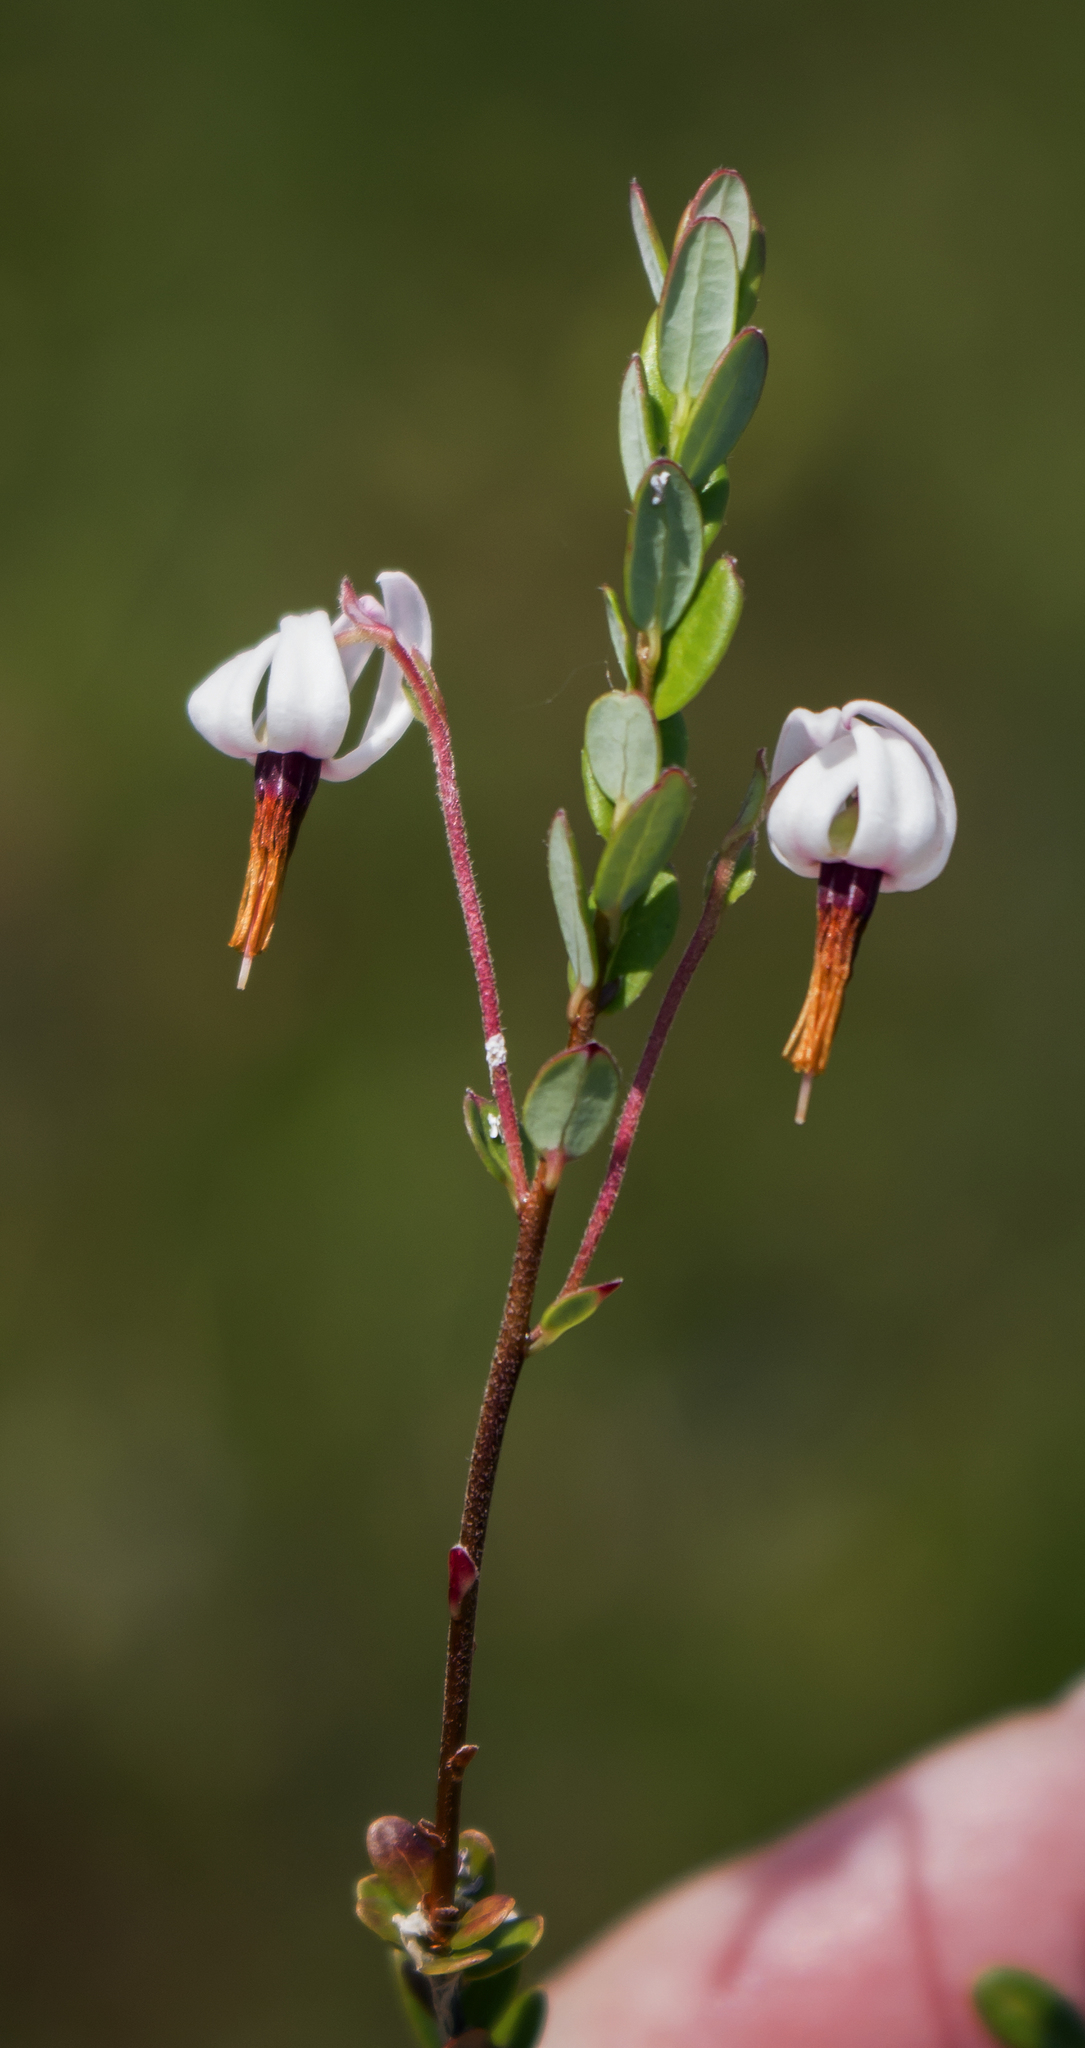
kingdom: Plantae
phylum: Tracheophyta
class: Magnoliopsida
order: Ericales
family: Ericaceae
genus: Vaccinium
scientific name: Vaccinium macrocarpon
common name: American cranberry
